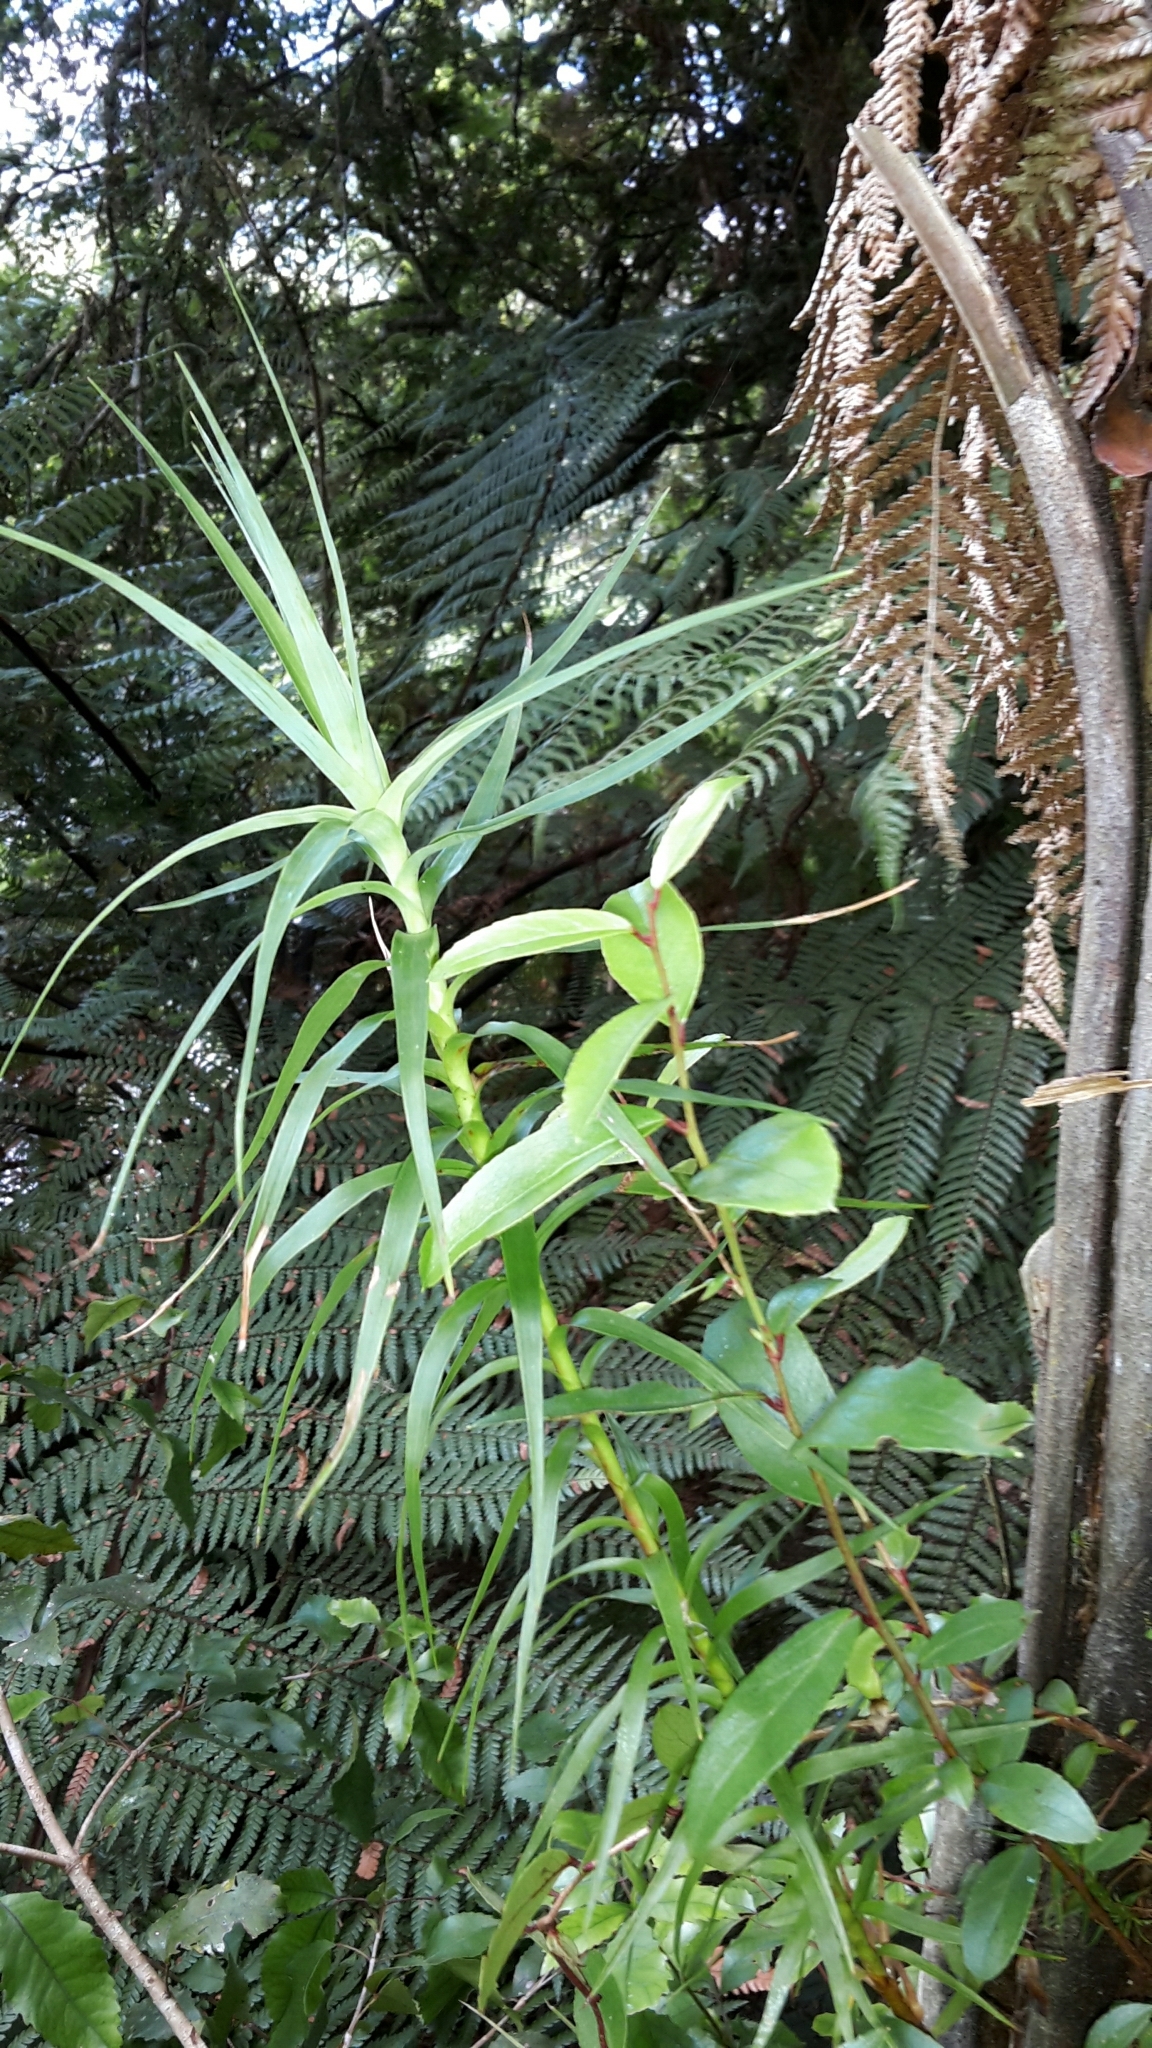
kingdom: Plantae
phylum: Tracheophyta
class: Magnoliopsida
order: Ericales
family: Ericaceae
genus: Gaultheria
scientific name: Gaultheria paniculata
